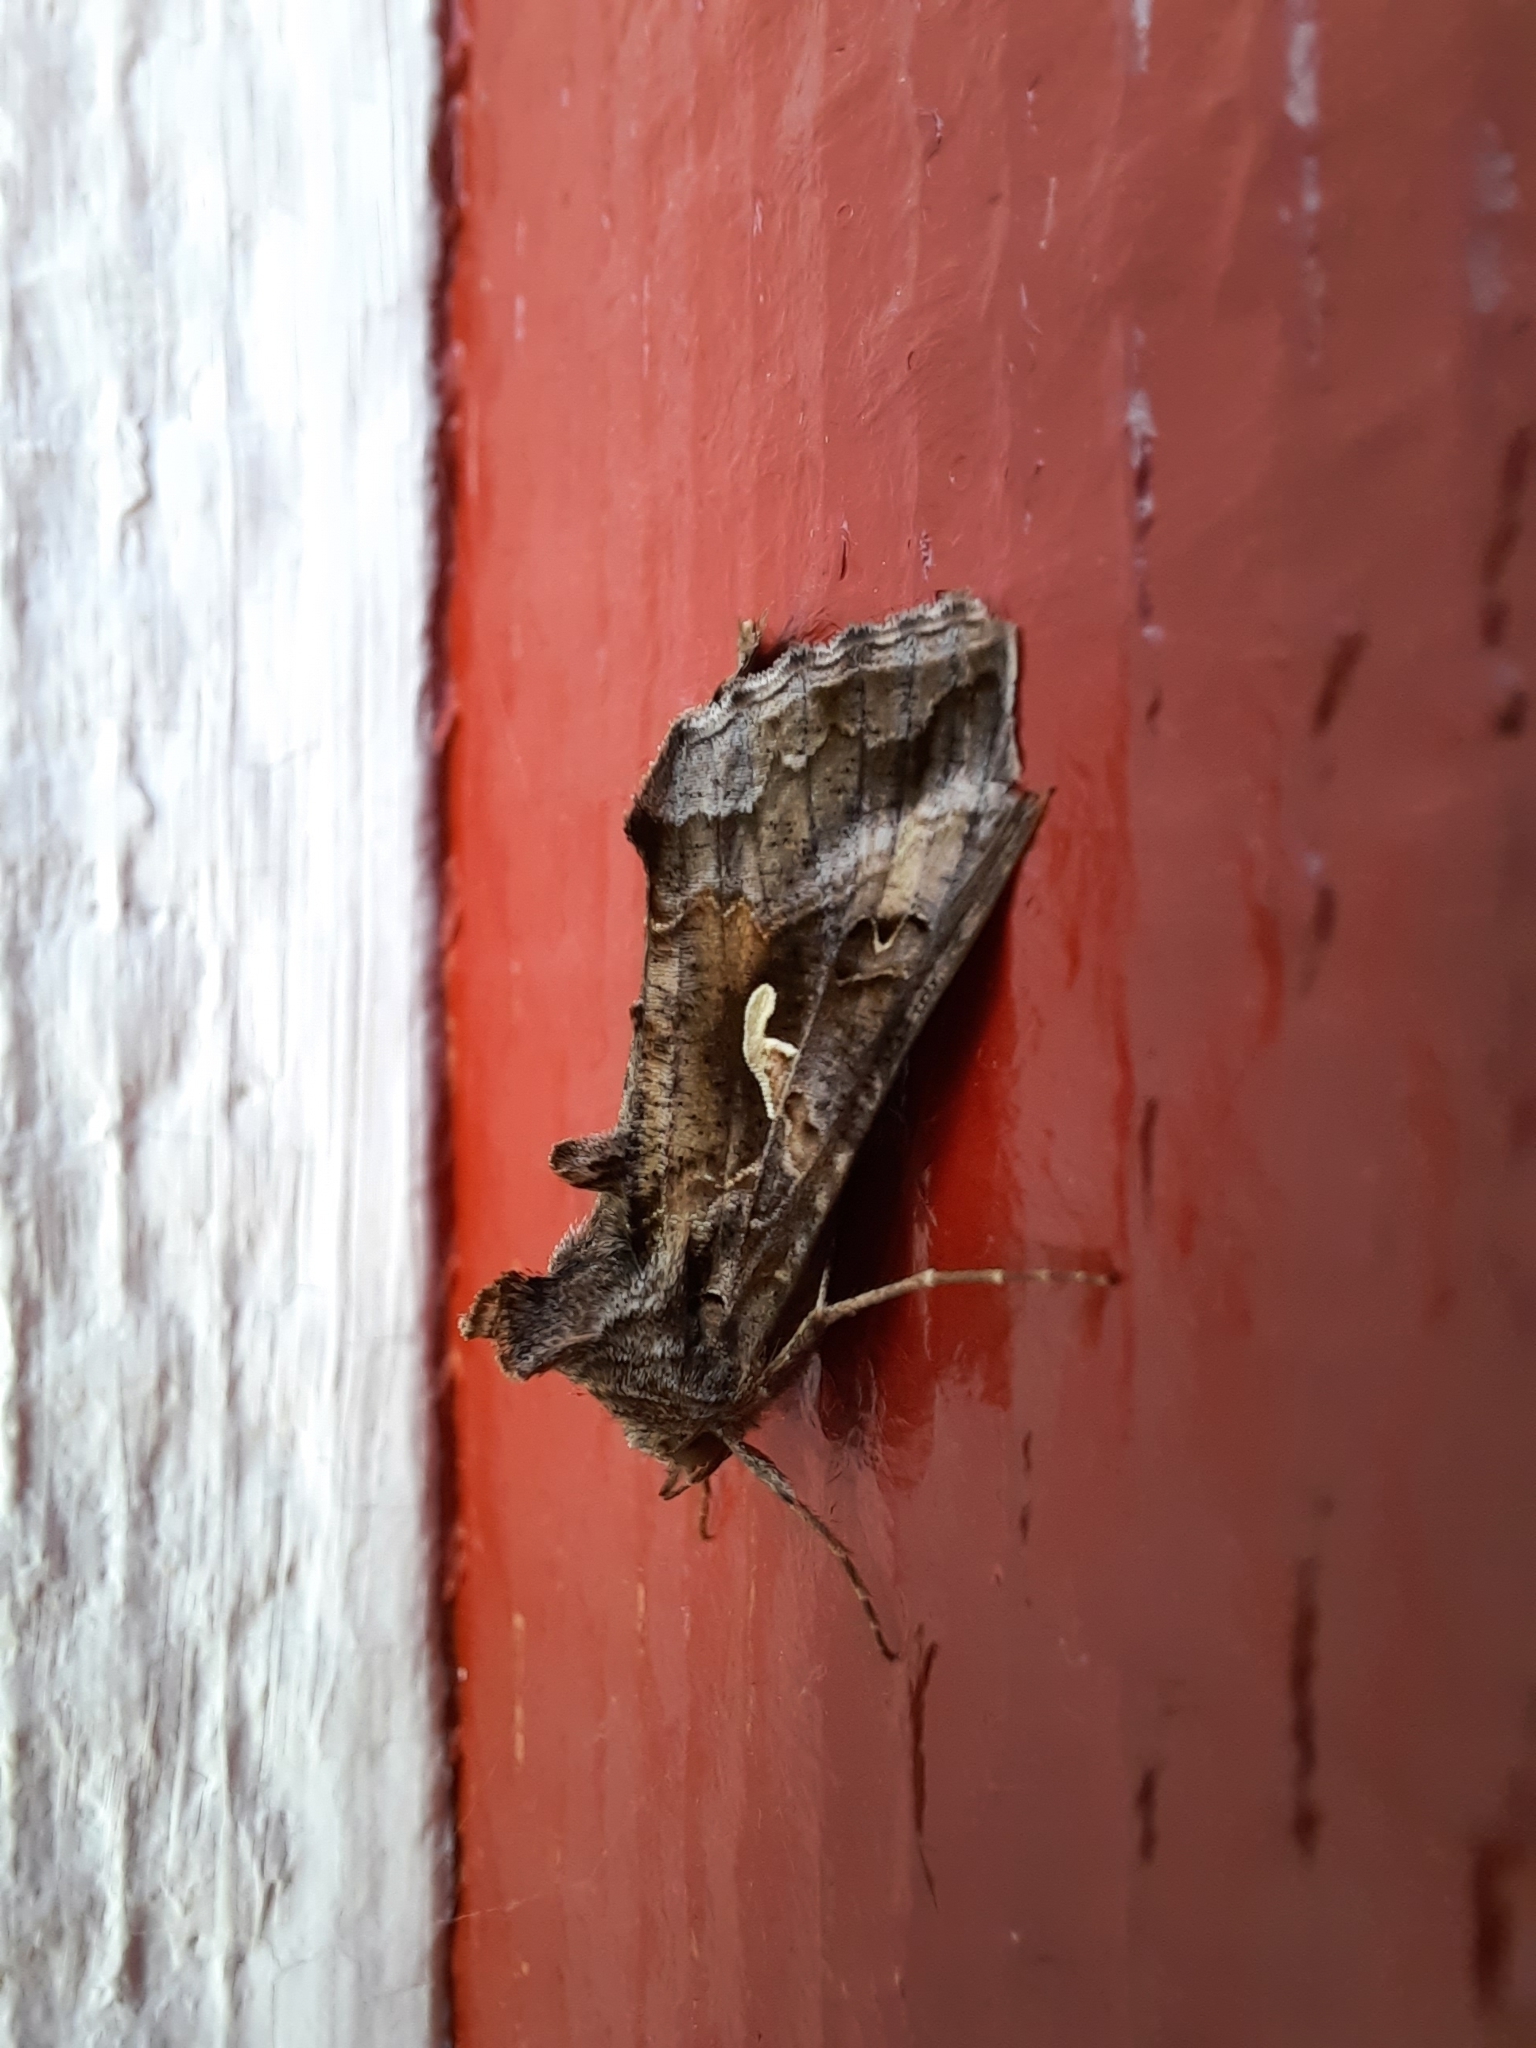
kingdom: Animalia
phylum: Arthropoda
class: Insecta
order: Lepidoptera
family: Noctuidae
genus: Autographa
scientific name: Autographa gamma
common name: Silver y
